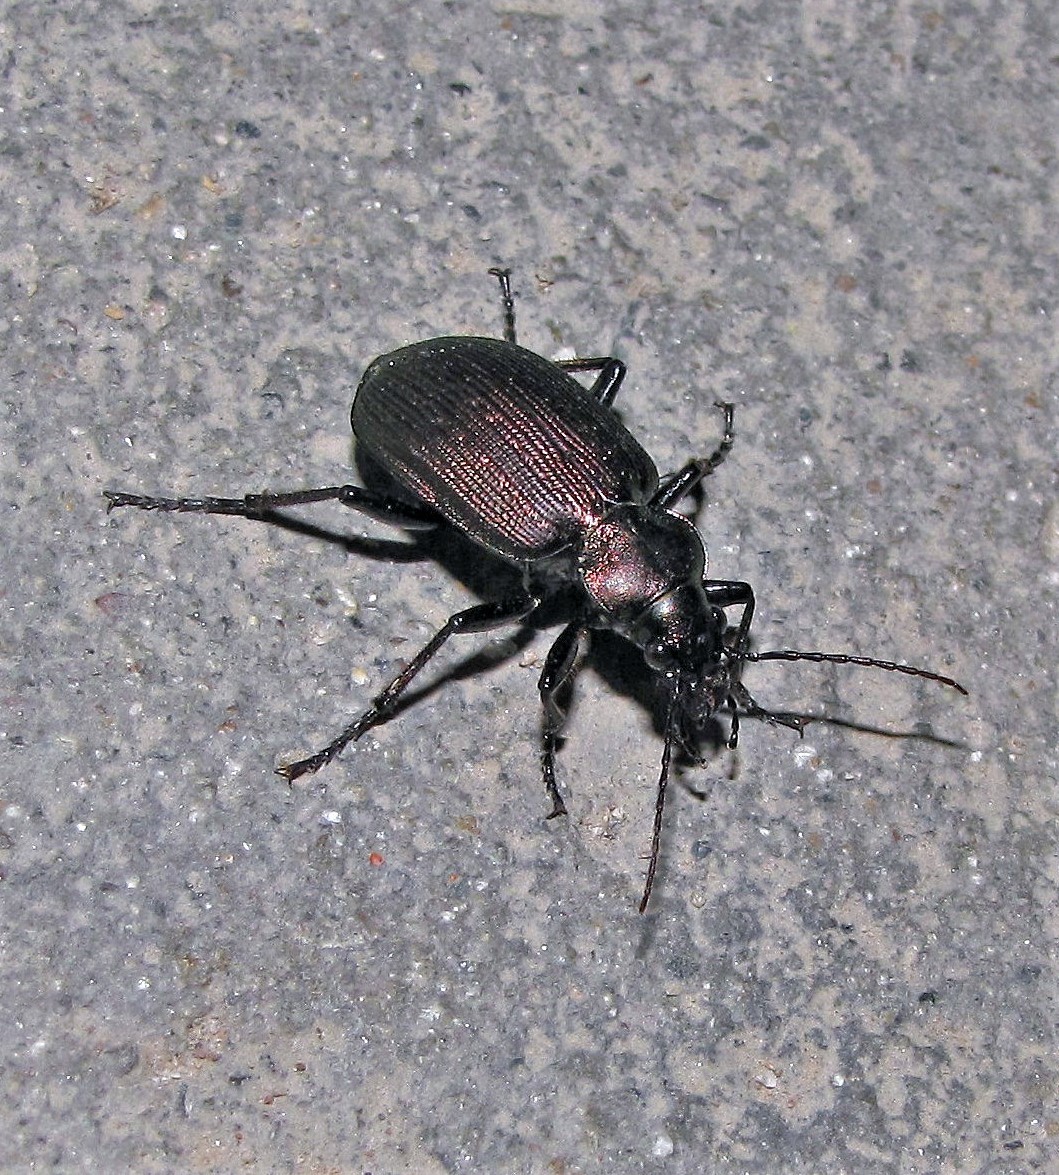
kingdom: Animalia
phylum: Arthropoda
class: Insecta
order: Coleoptera
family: Carabidae
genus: Calosoma
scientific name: Calosoma argentinense
